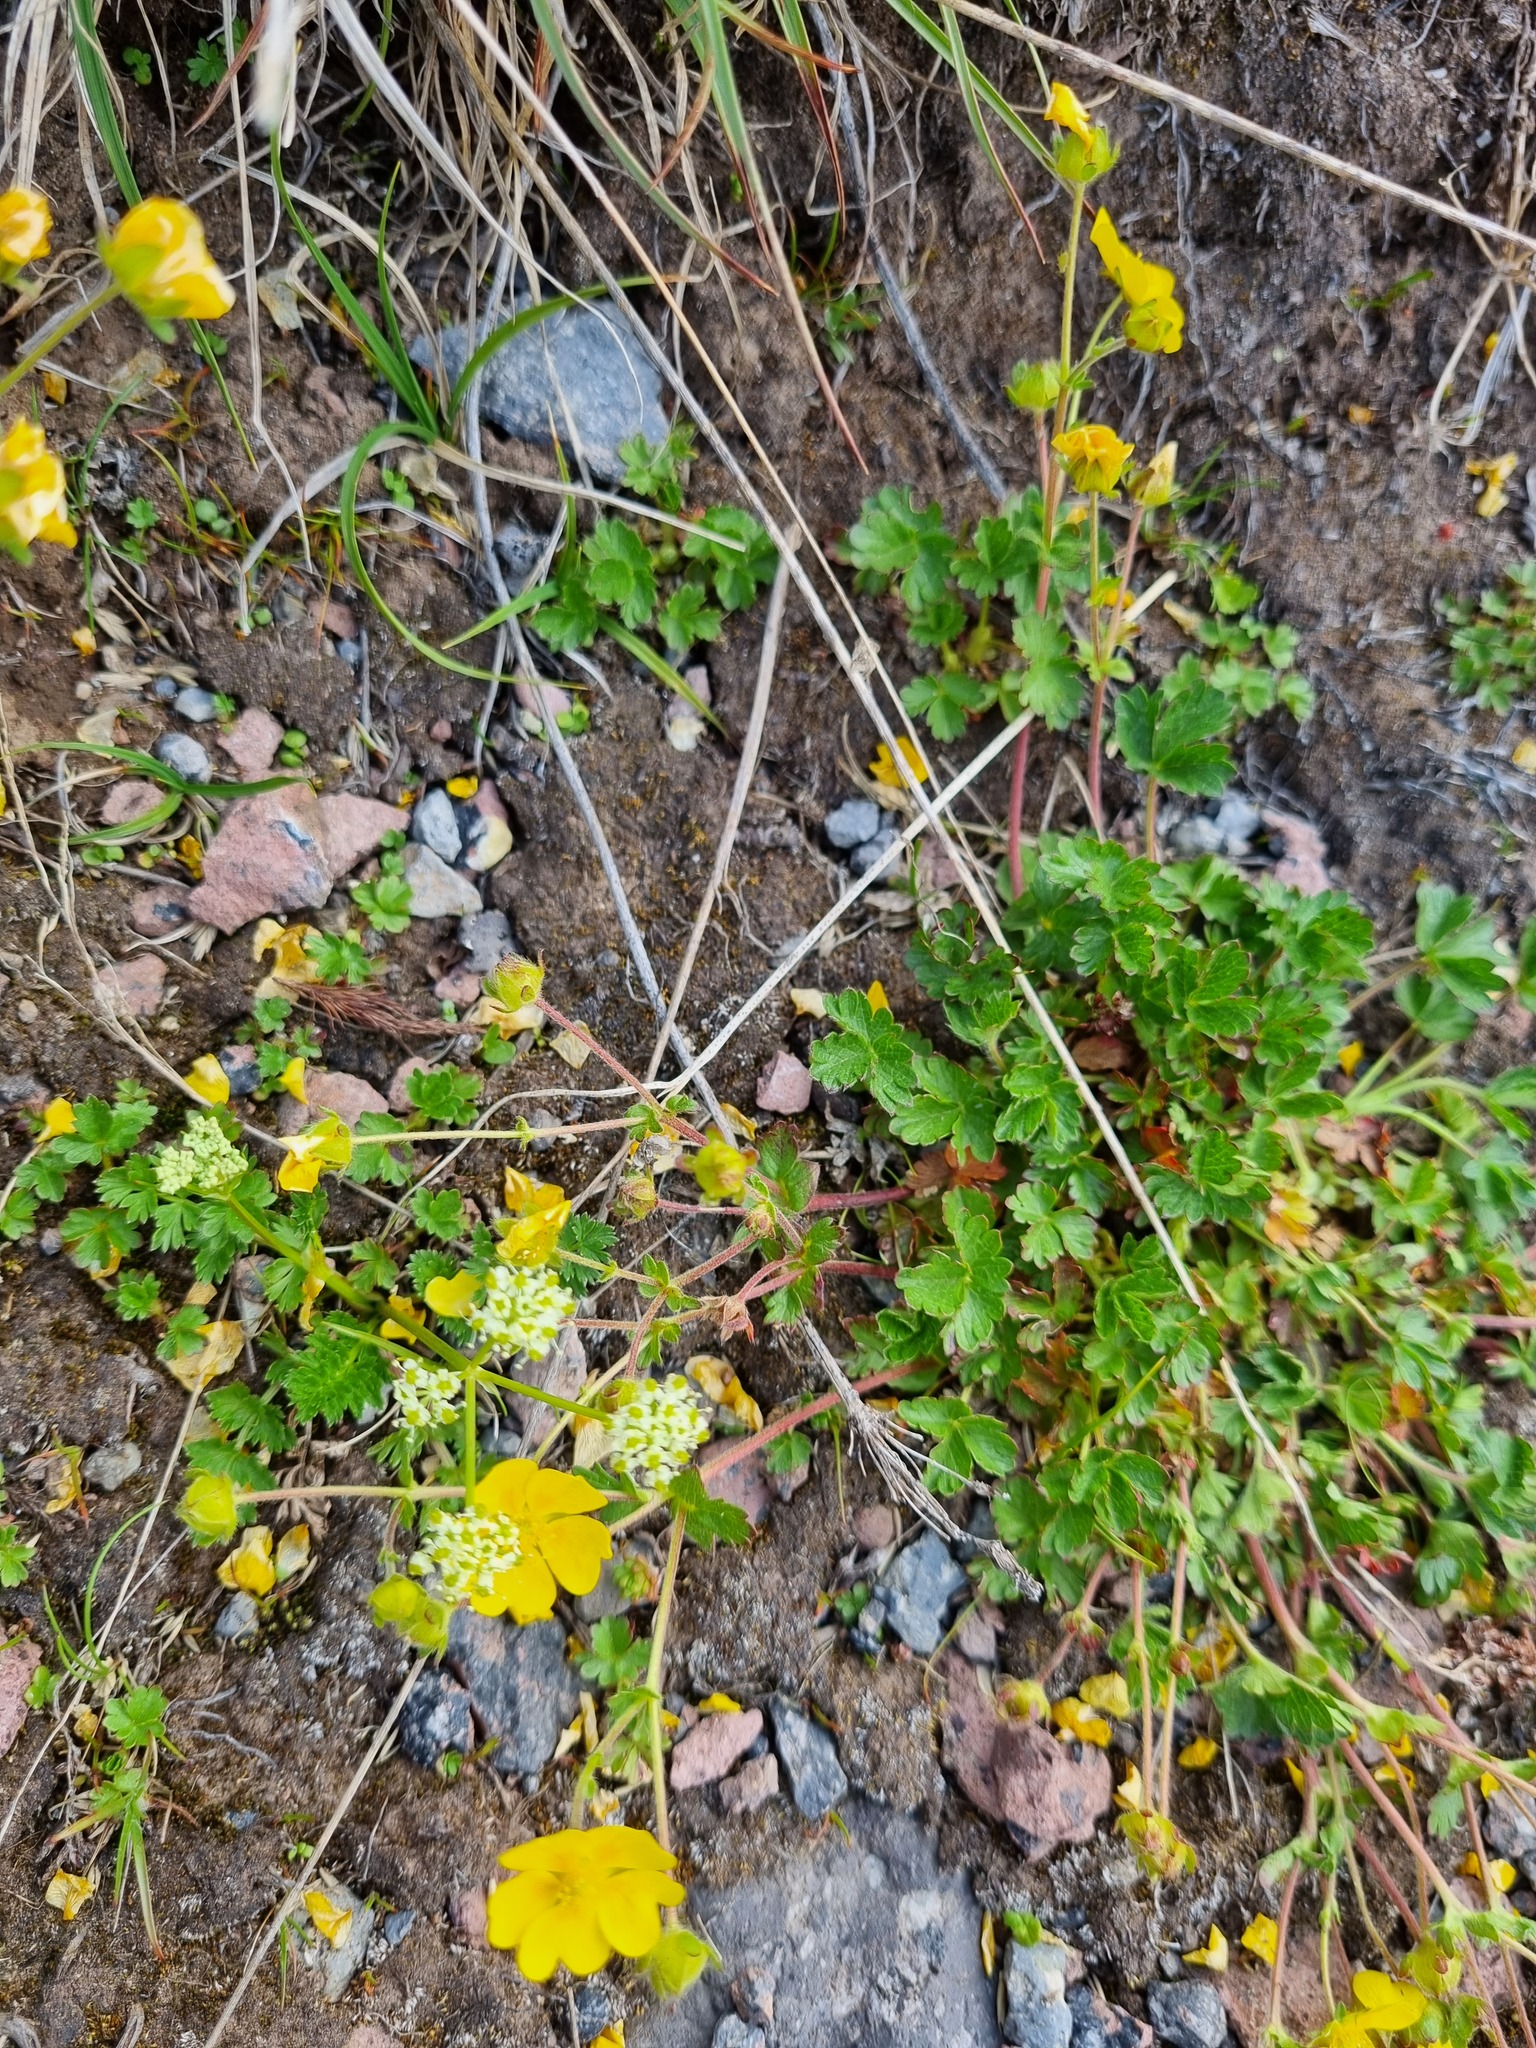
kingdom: Plantae
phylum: Tracheophyta
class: Magnoliopsida
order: Rosales
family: Rosaceae
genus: Potentilla
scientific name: Potentilla
